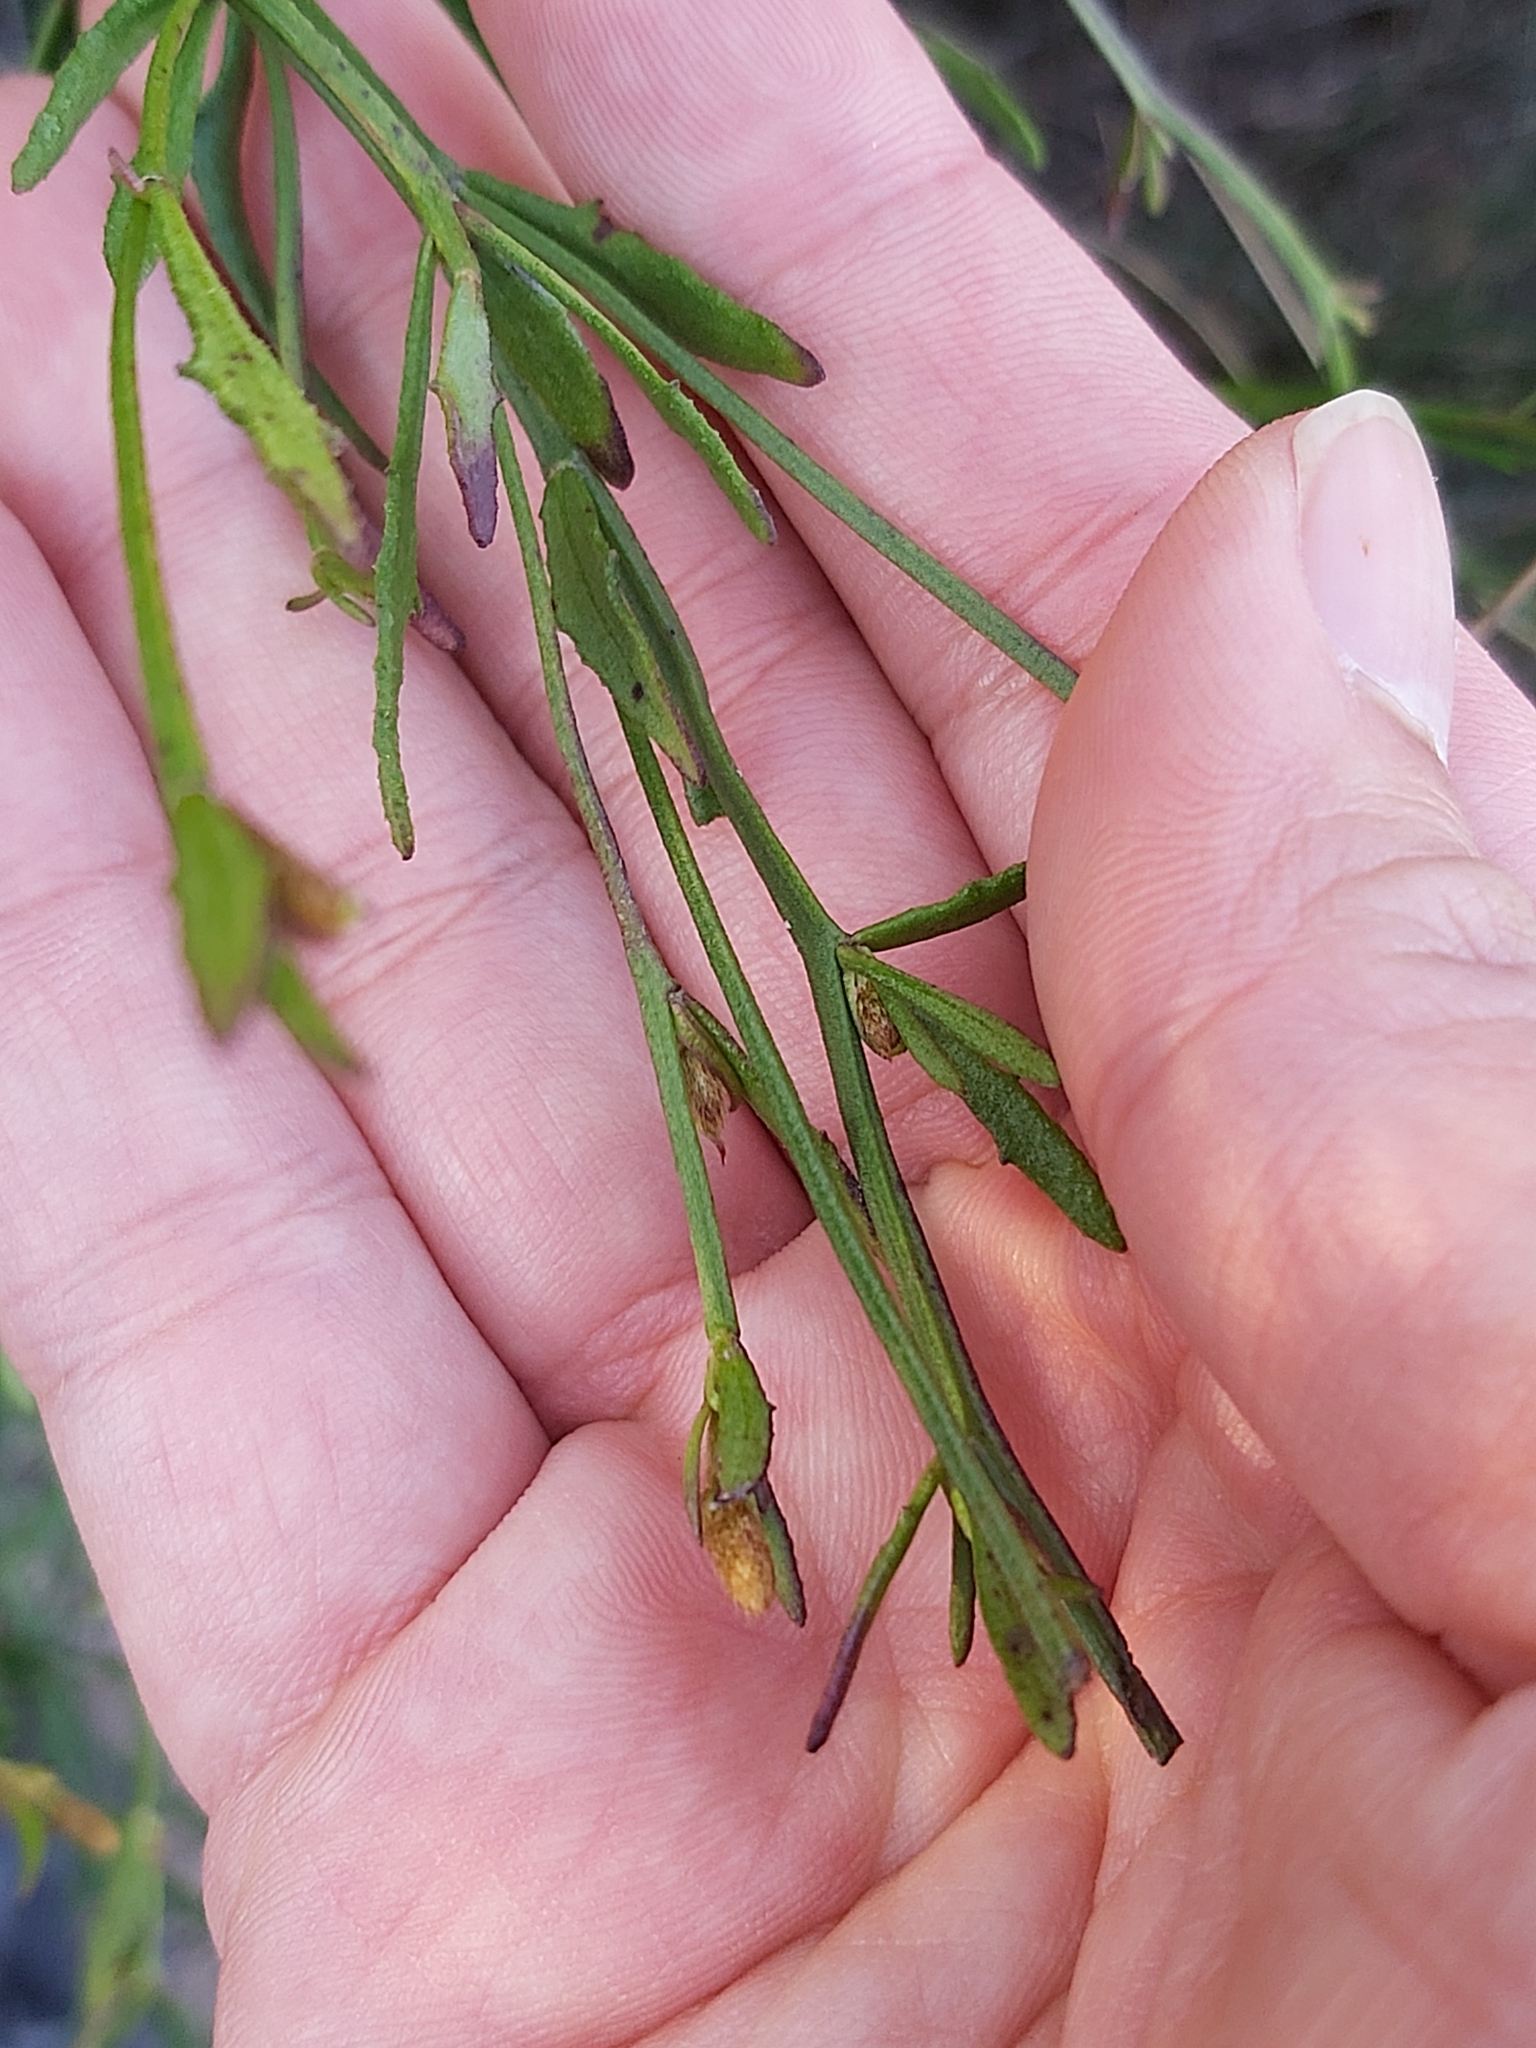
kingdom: Plantae
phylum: Tracheophyta
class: Magnoliopsida
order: Asterales
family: Goodeniaceae
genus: Dampiera
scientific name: Dampiera stricta
